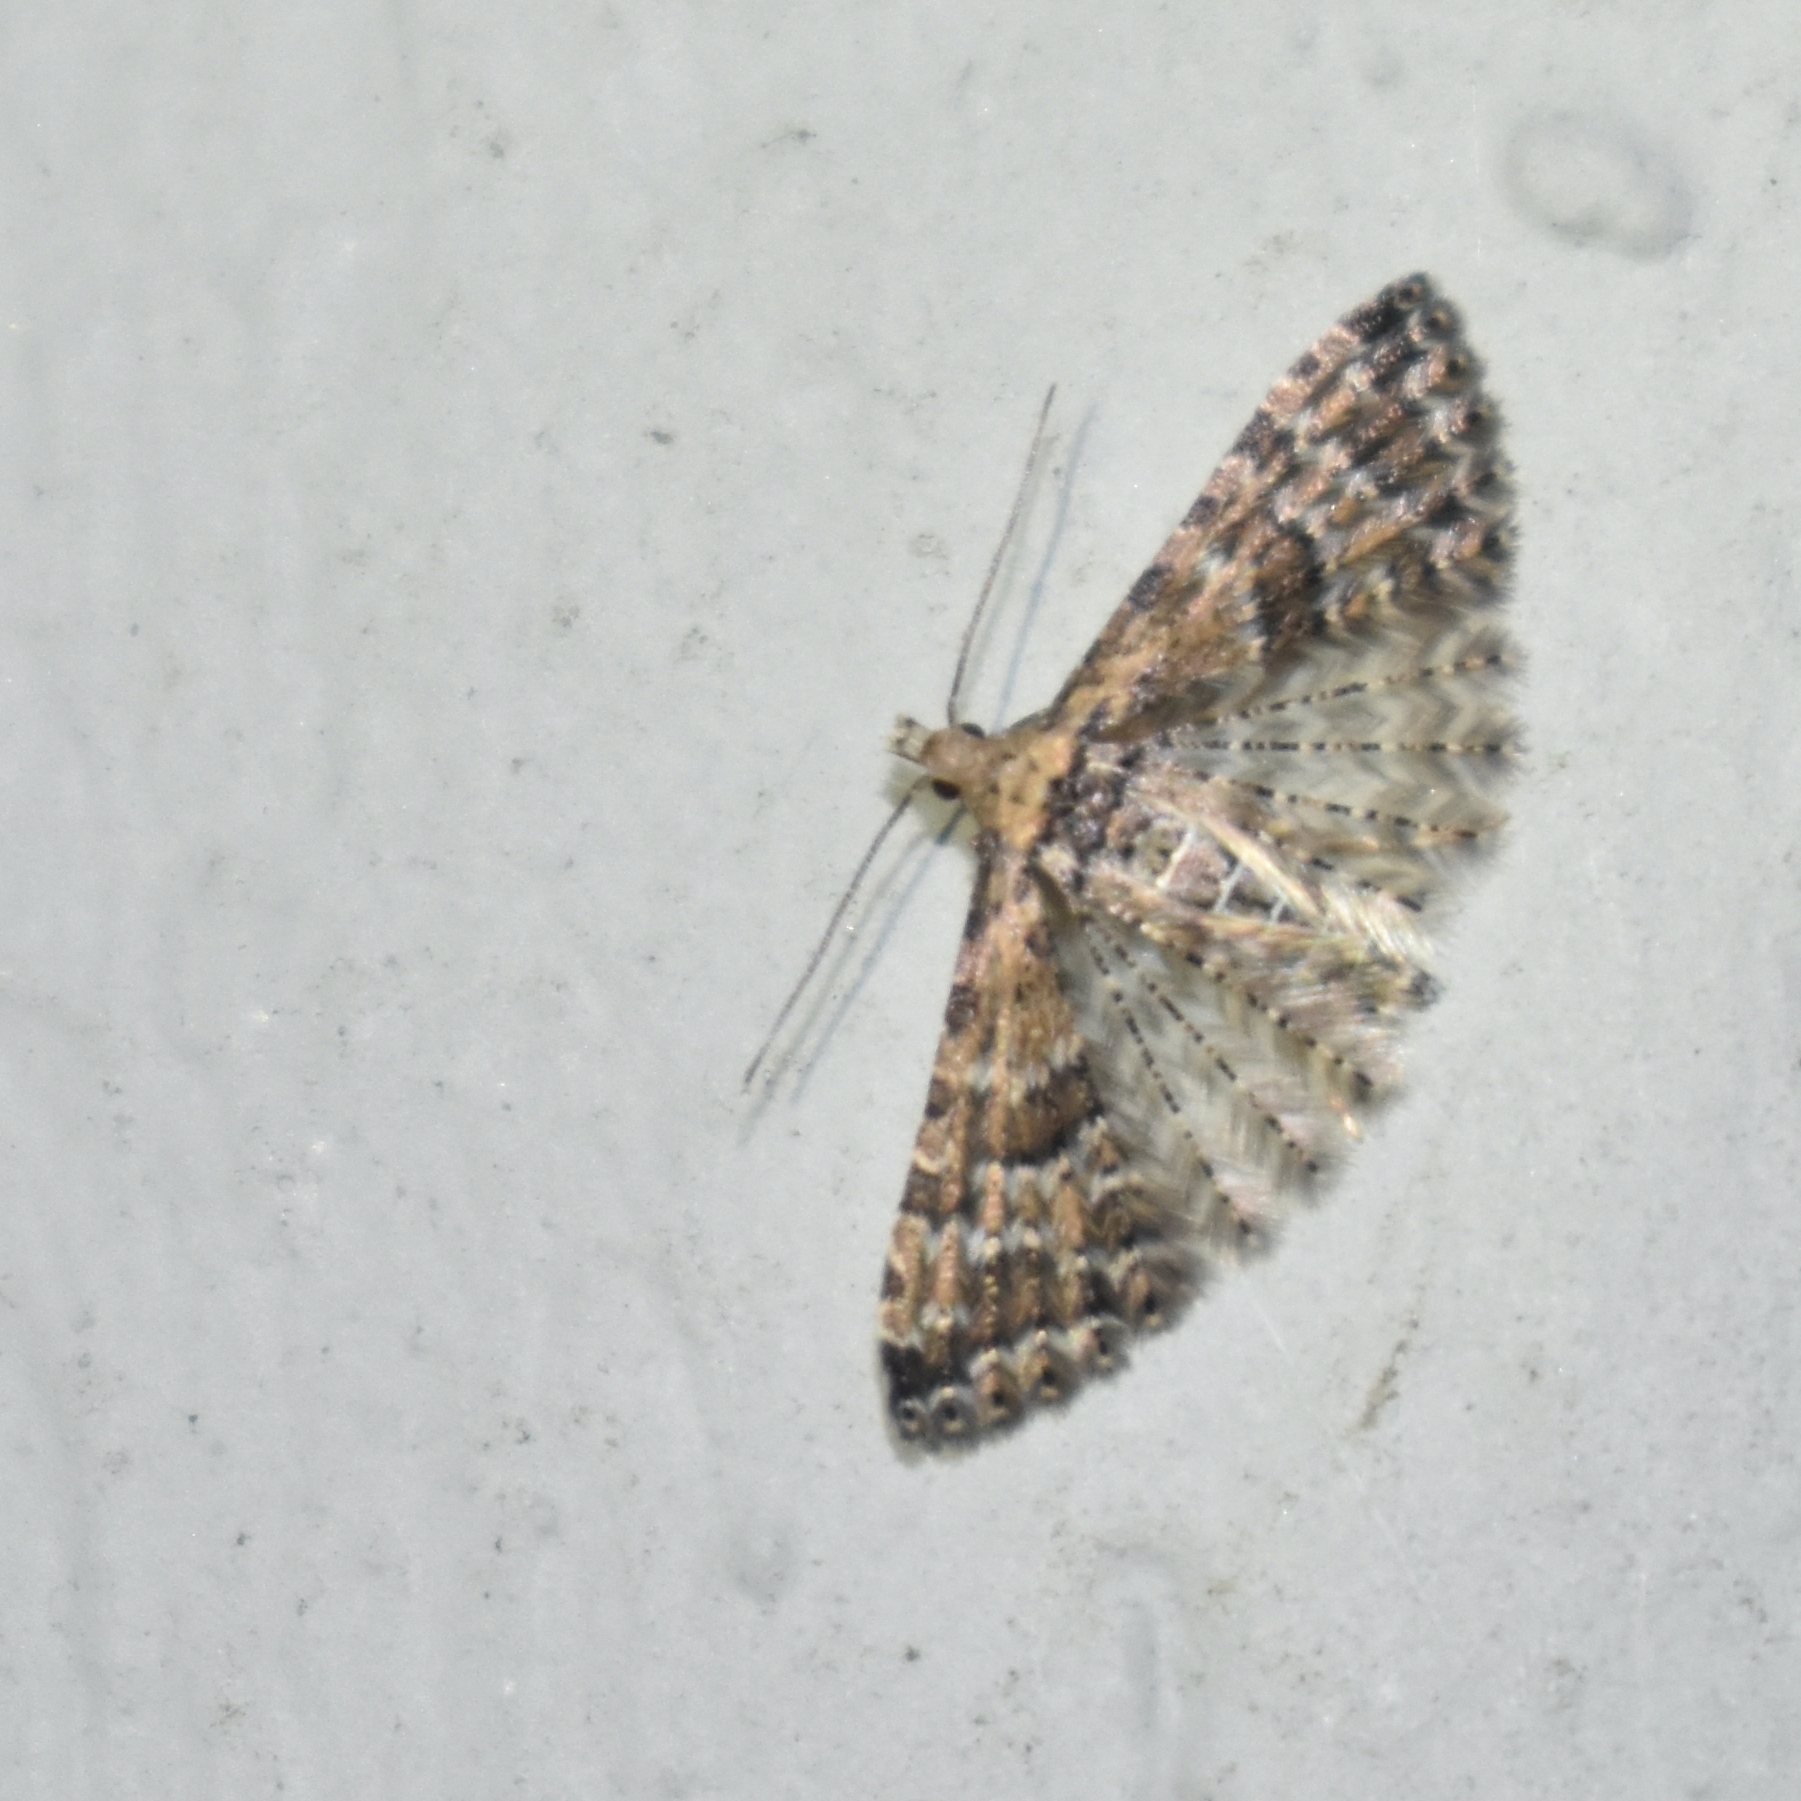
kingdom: Animalia
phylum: Arthropoda
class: Insecta
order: Lepidoptera
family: Alucitidae
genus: Alucita
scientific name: Alucita montana
